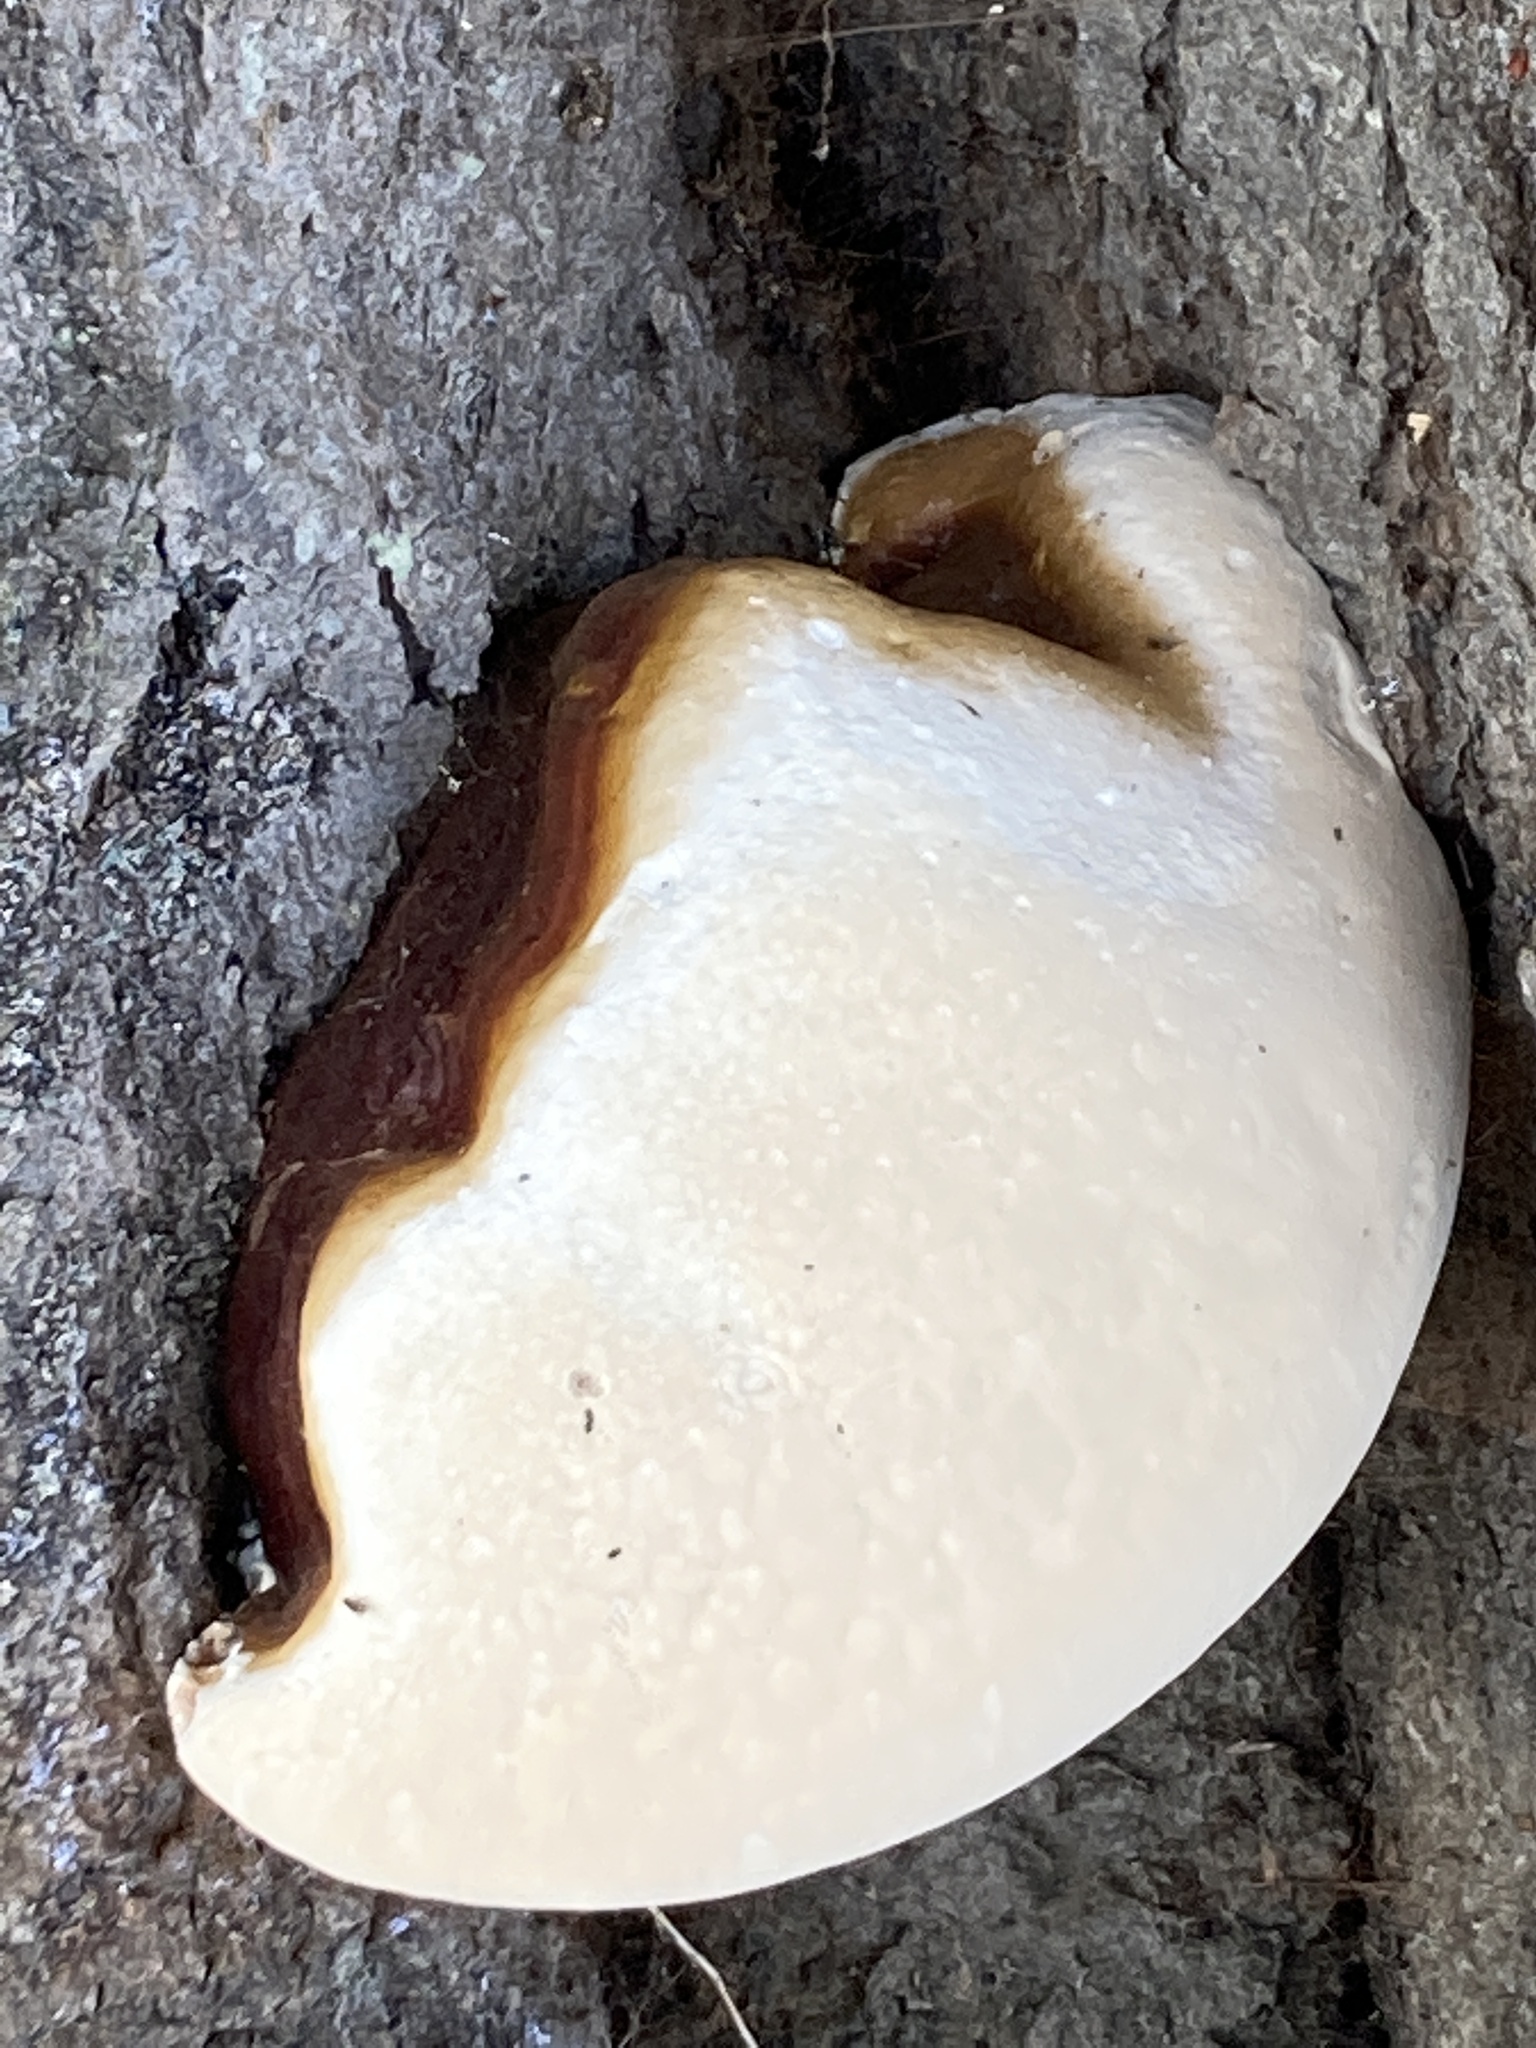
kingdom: Fungi
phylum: Basidiomycota
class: Agaricomycetes
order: Polyporales
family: Polyporaceae
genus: Ganoderma
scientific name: Ganoderma resinaceum
